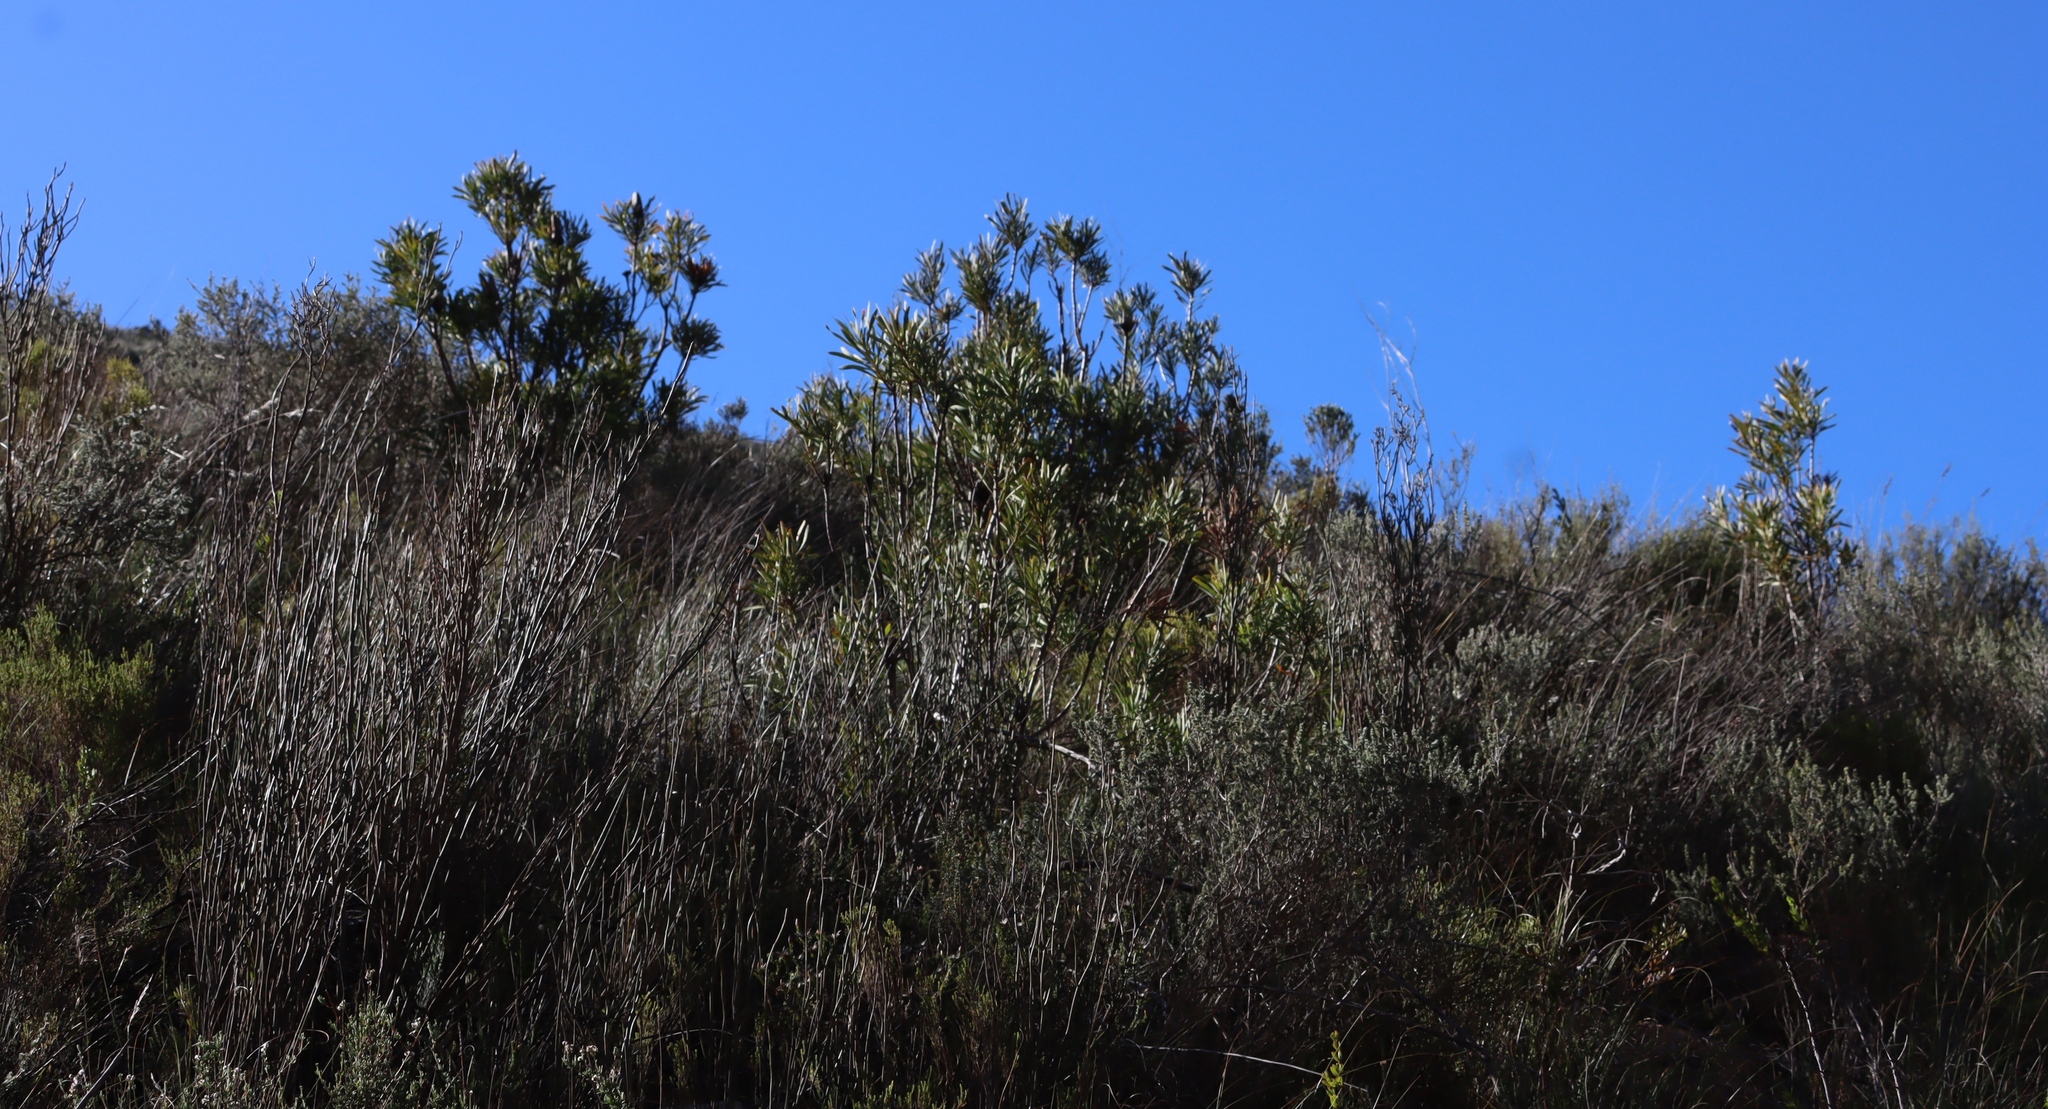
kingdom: Plantae
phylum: Tracheophyta
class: Magnoliopsida
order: Proteales
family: Proteaceae
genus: Protea
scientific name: Protea repens
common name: Sugarbush
